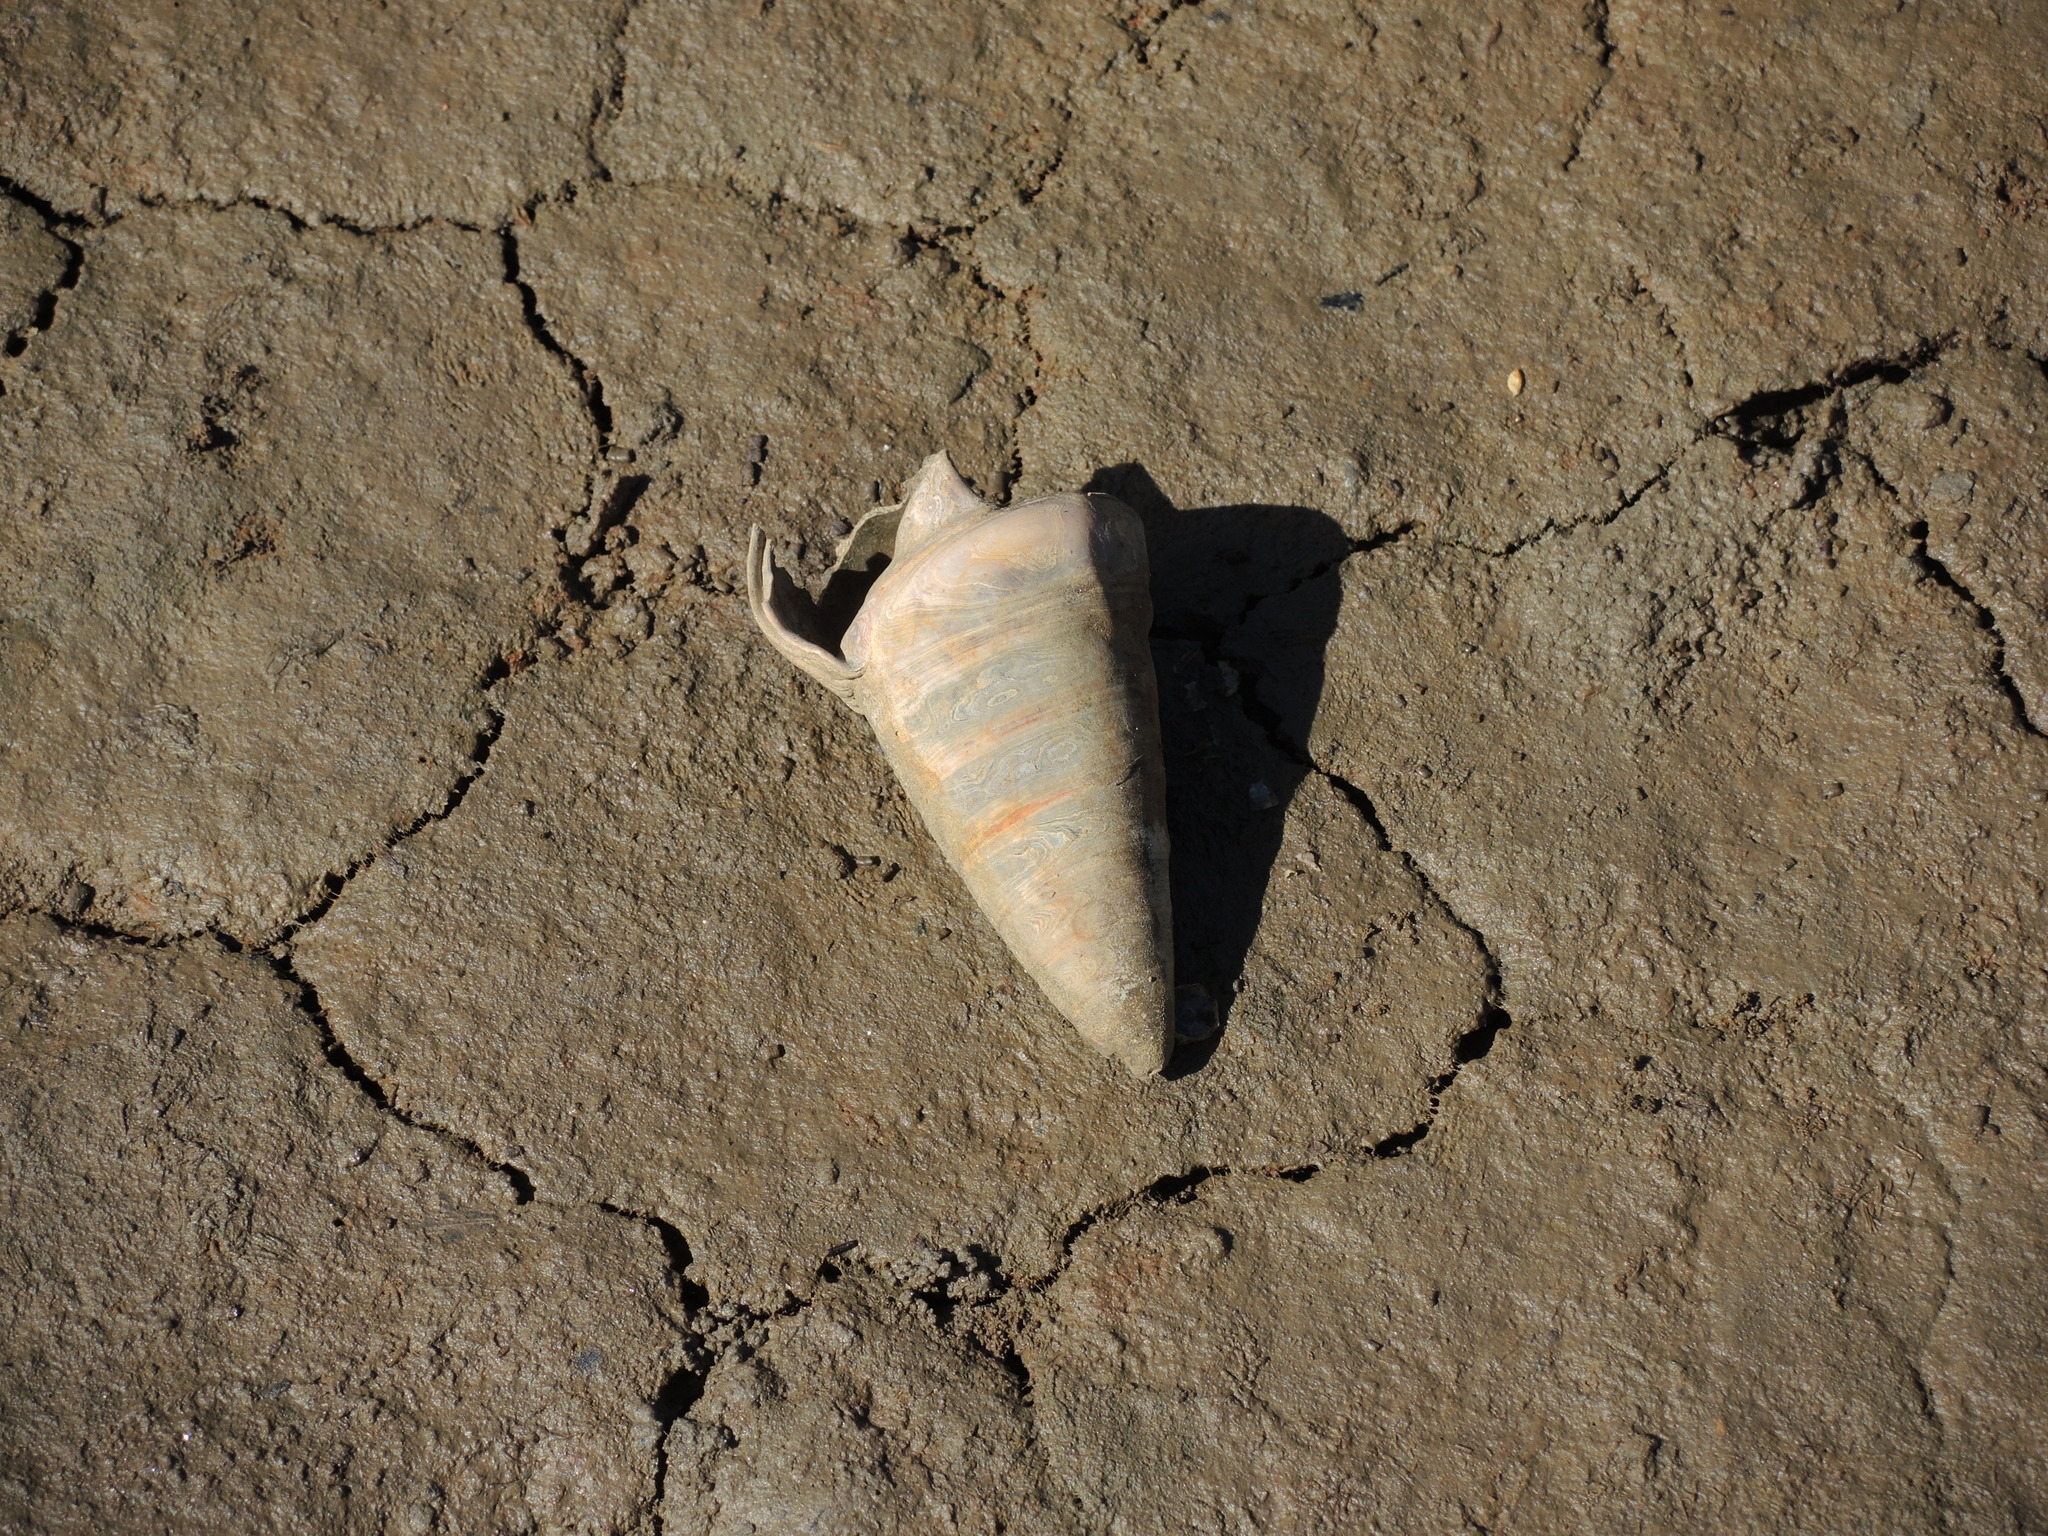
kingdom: Animalia
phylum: Mollusca
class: Gastropoda
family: Potamididae
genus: Telescopium
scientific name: Telescopium telescopium
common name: Telescope creeper
